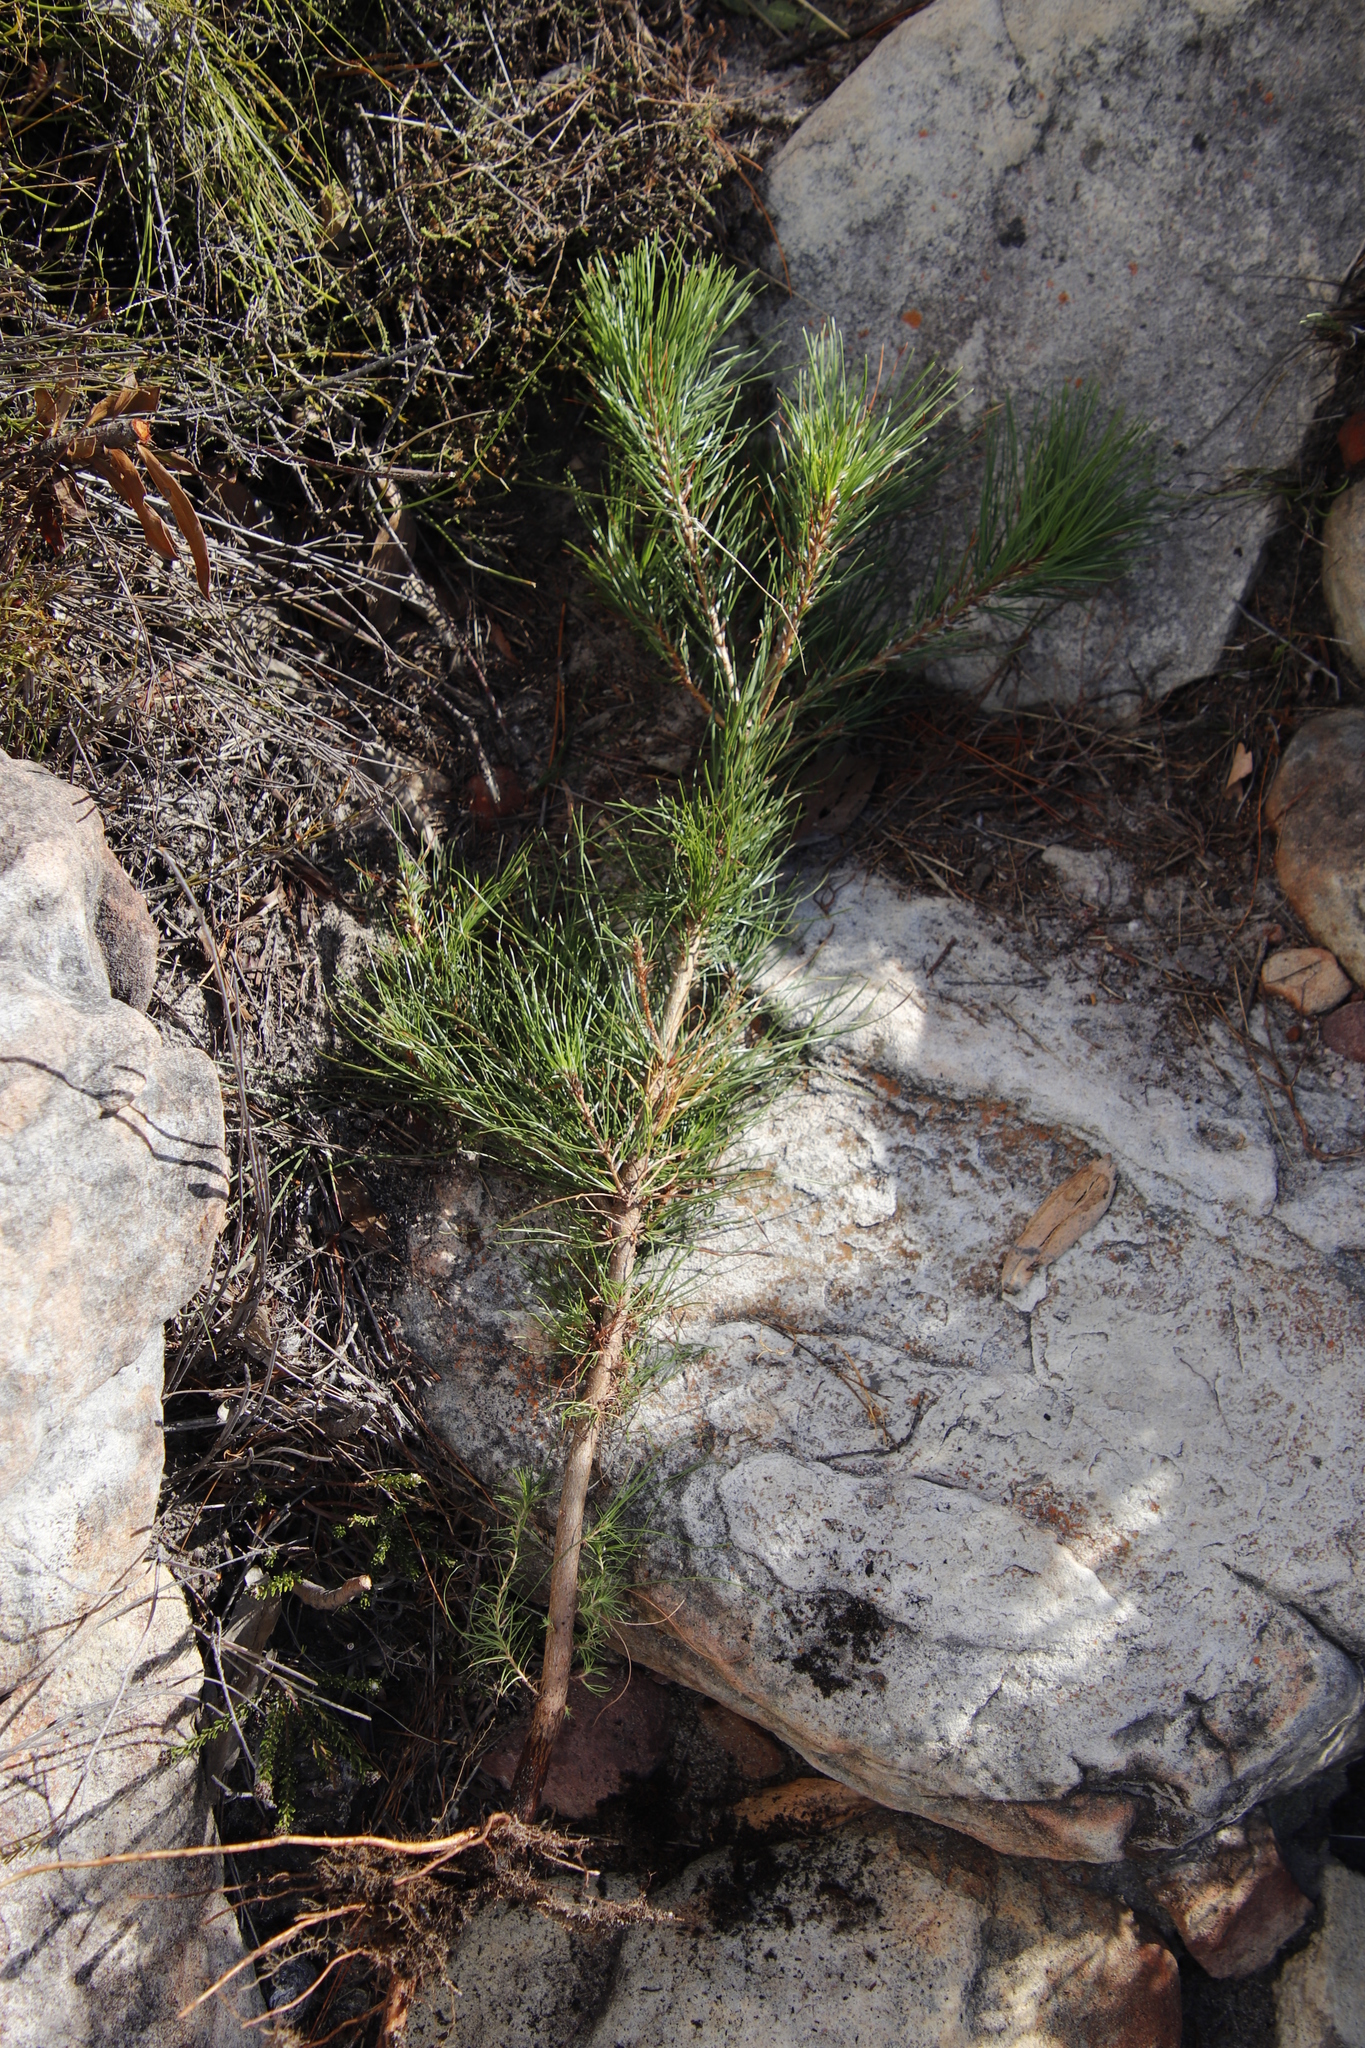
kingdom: Plantae
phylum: Tracheophyta
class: Pinopsida
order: Pinales
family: Pinaceae
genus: Pinus
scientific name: Pinus radiata
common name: Monterey pine
